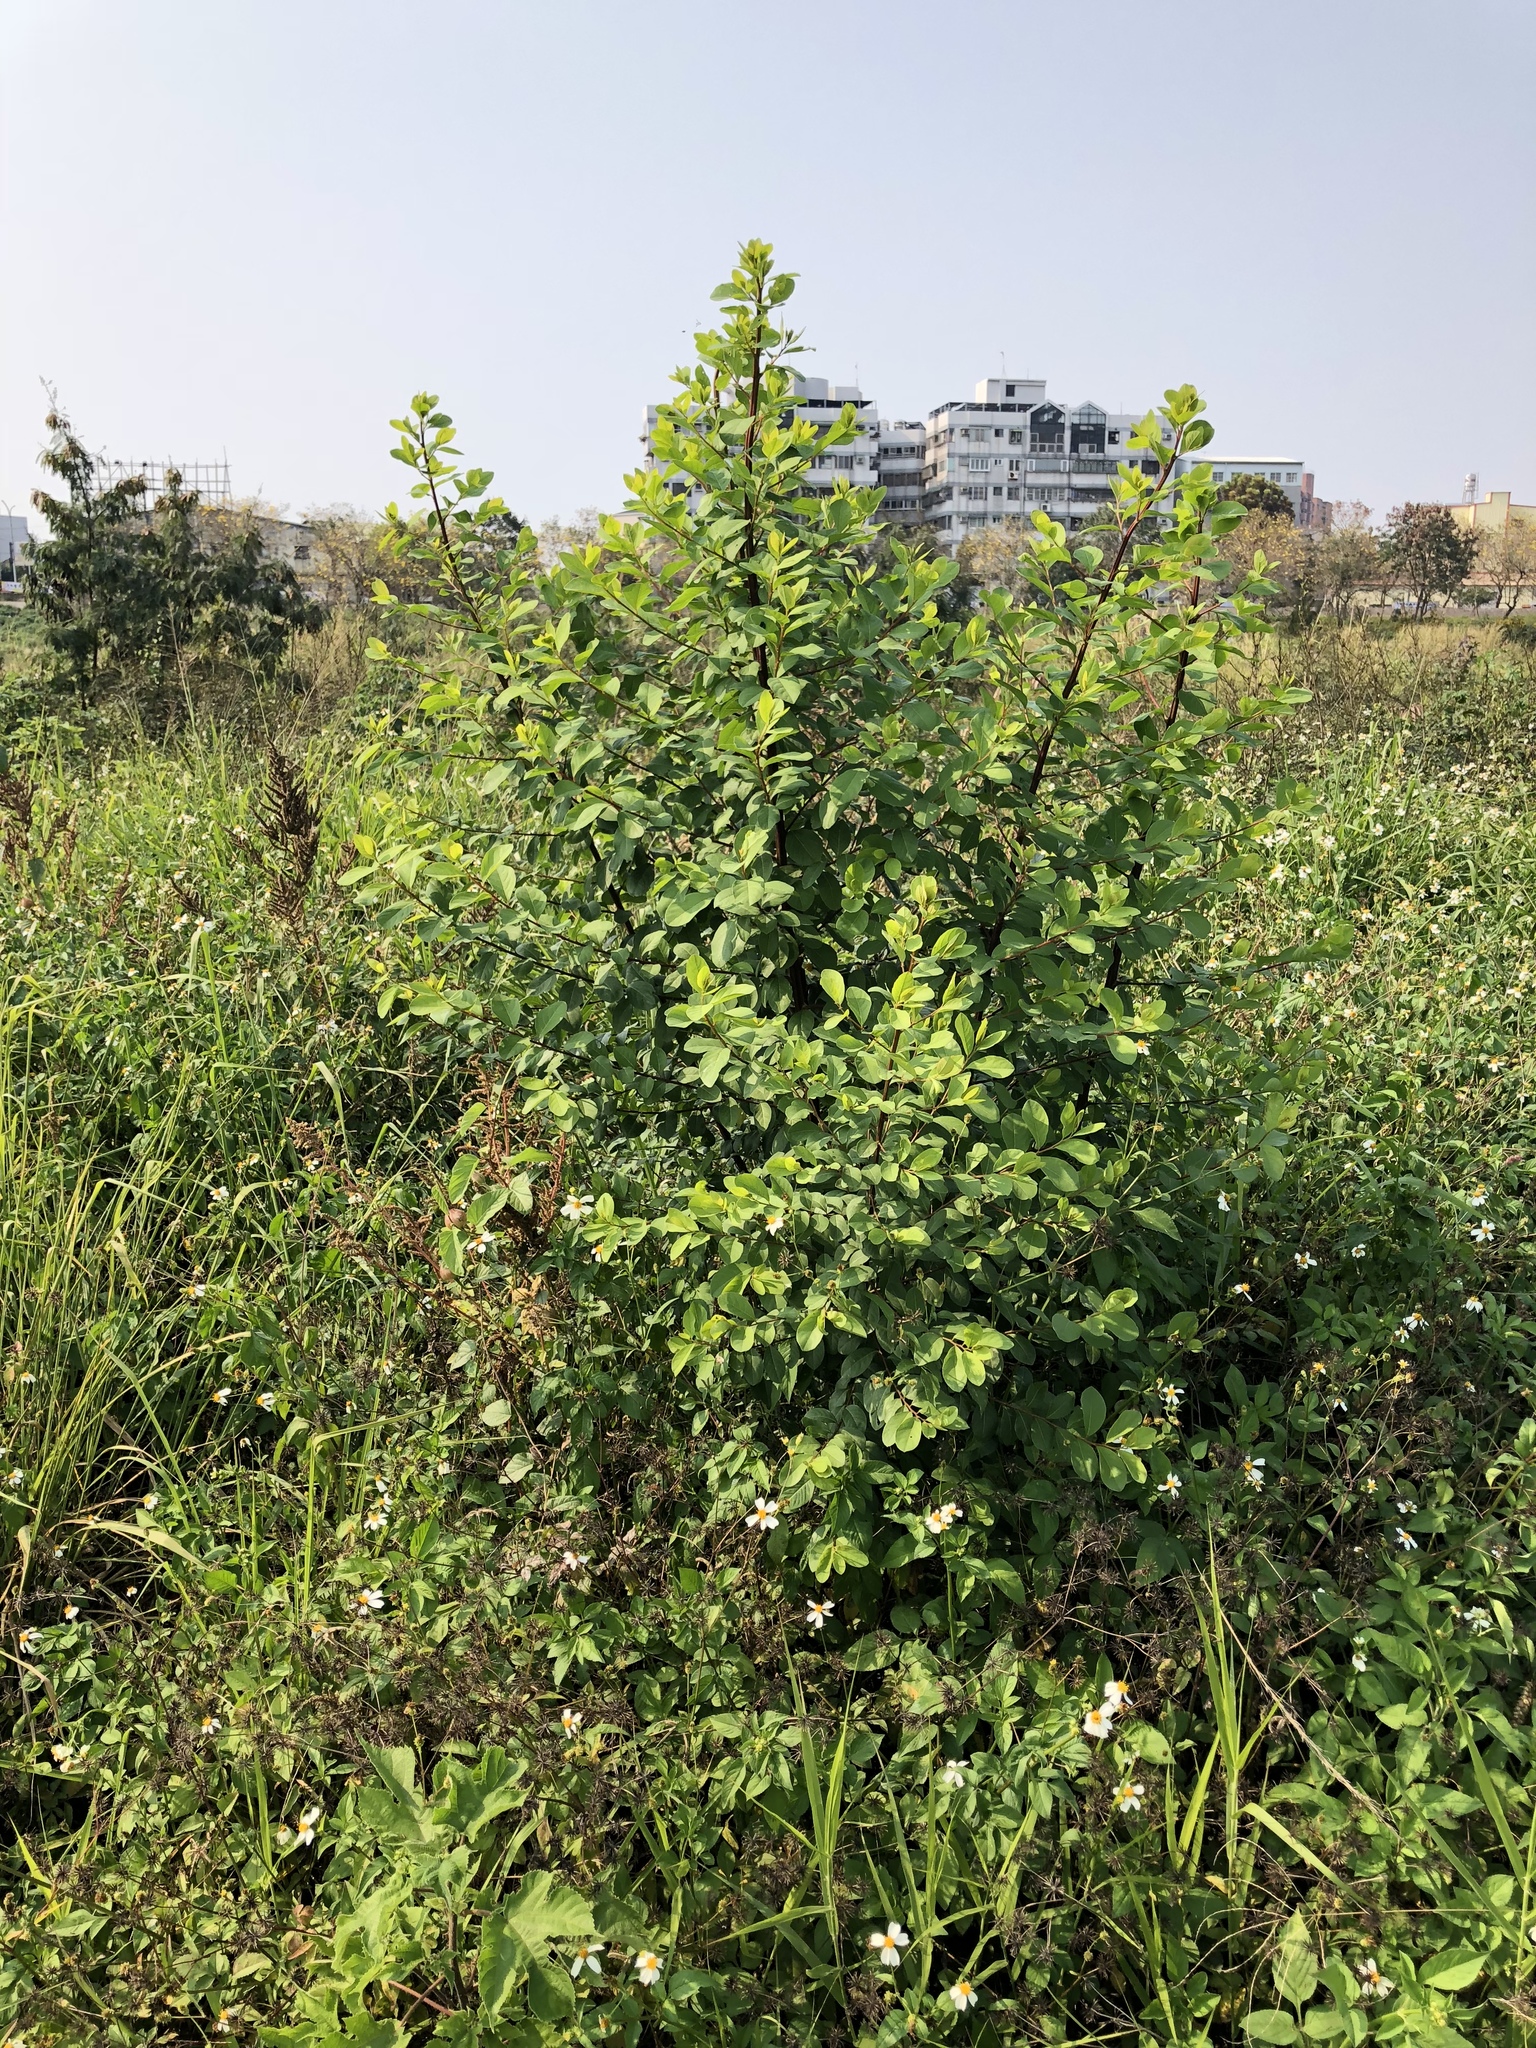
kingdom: Plantae
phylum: Tracheophyta
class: Magnoliopsida
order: Malpighiales
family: Phyllanthaceae
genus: Flueggea
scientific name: Flueggea virosa
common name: Common bushweed
